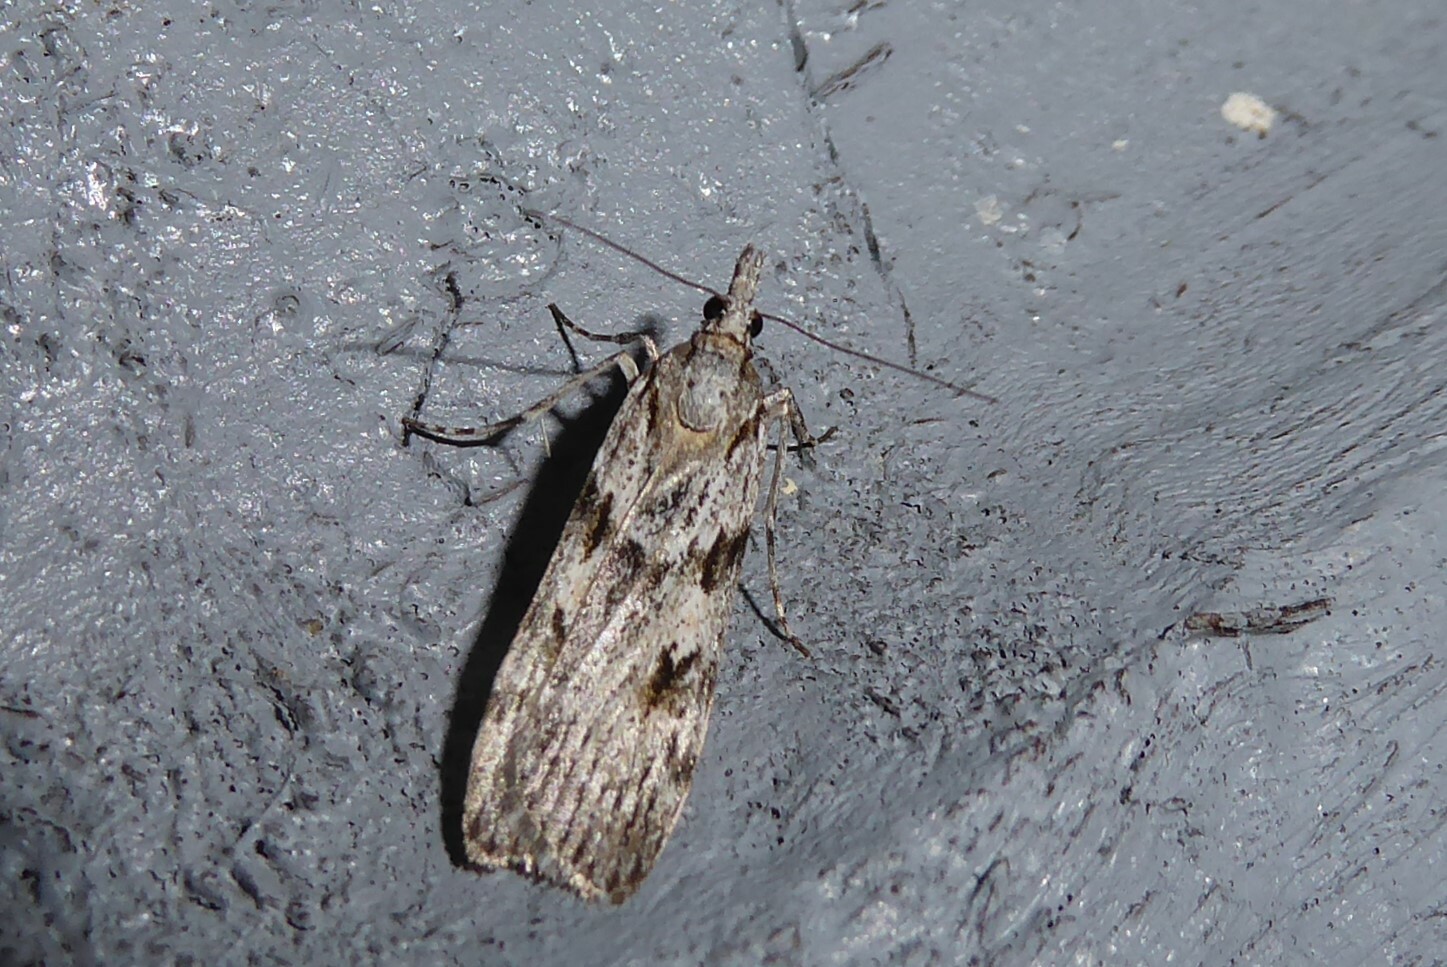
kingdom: Animalia
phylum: Arthropoda
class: Insecta
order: Lepidoptera
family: Crambidae
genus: Scoparia
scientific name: Scoparia halopis
